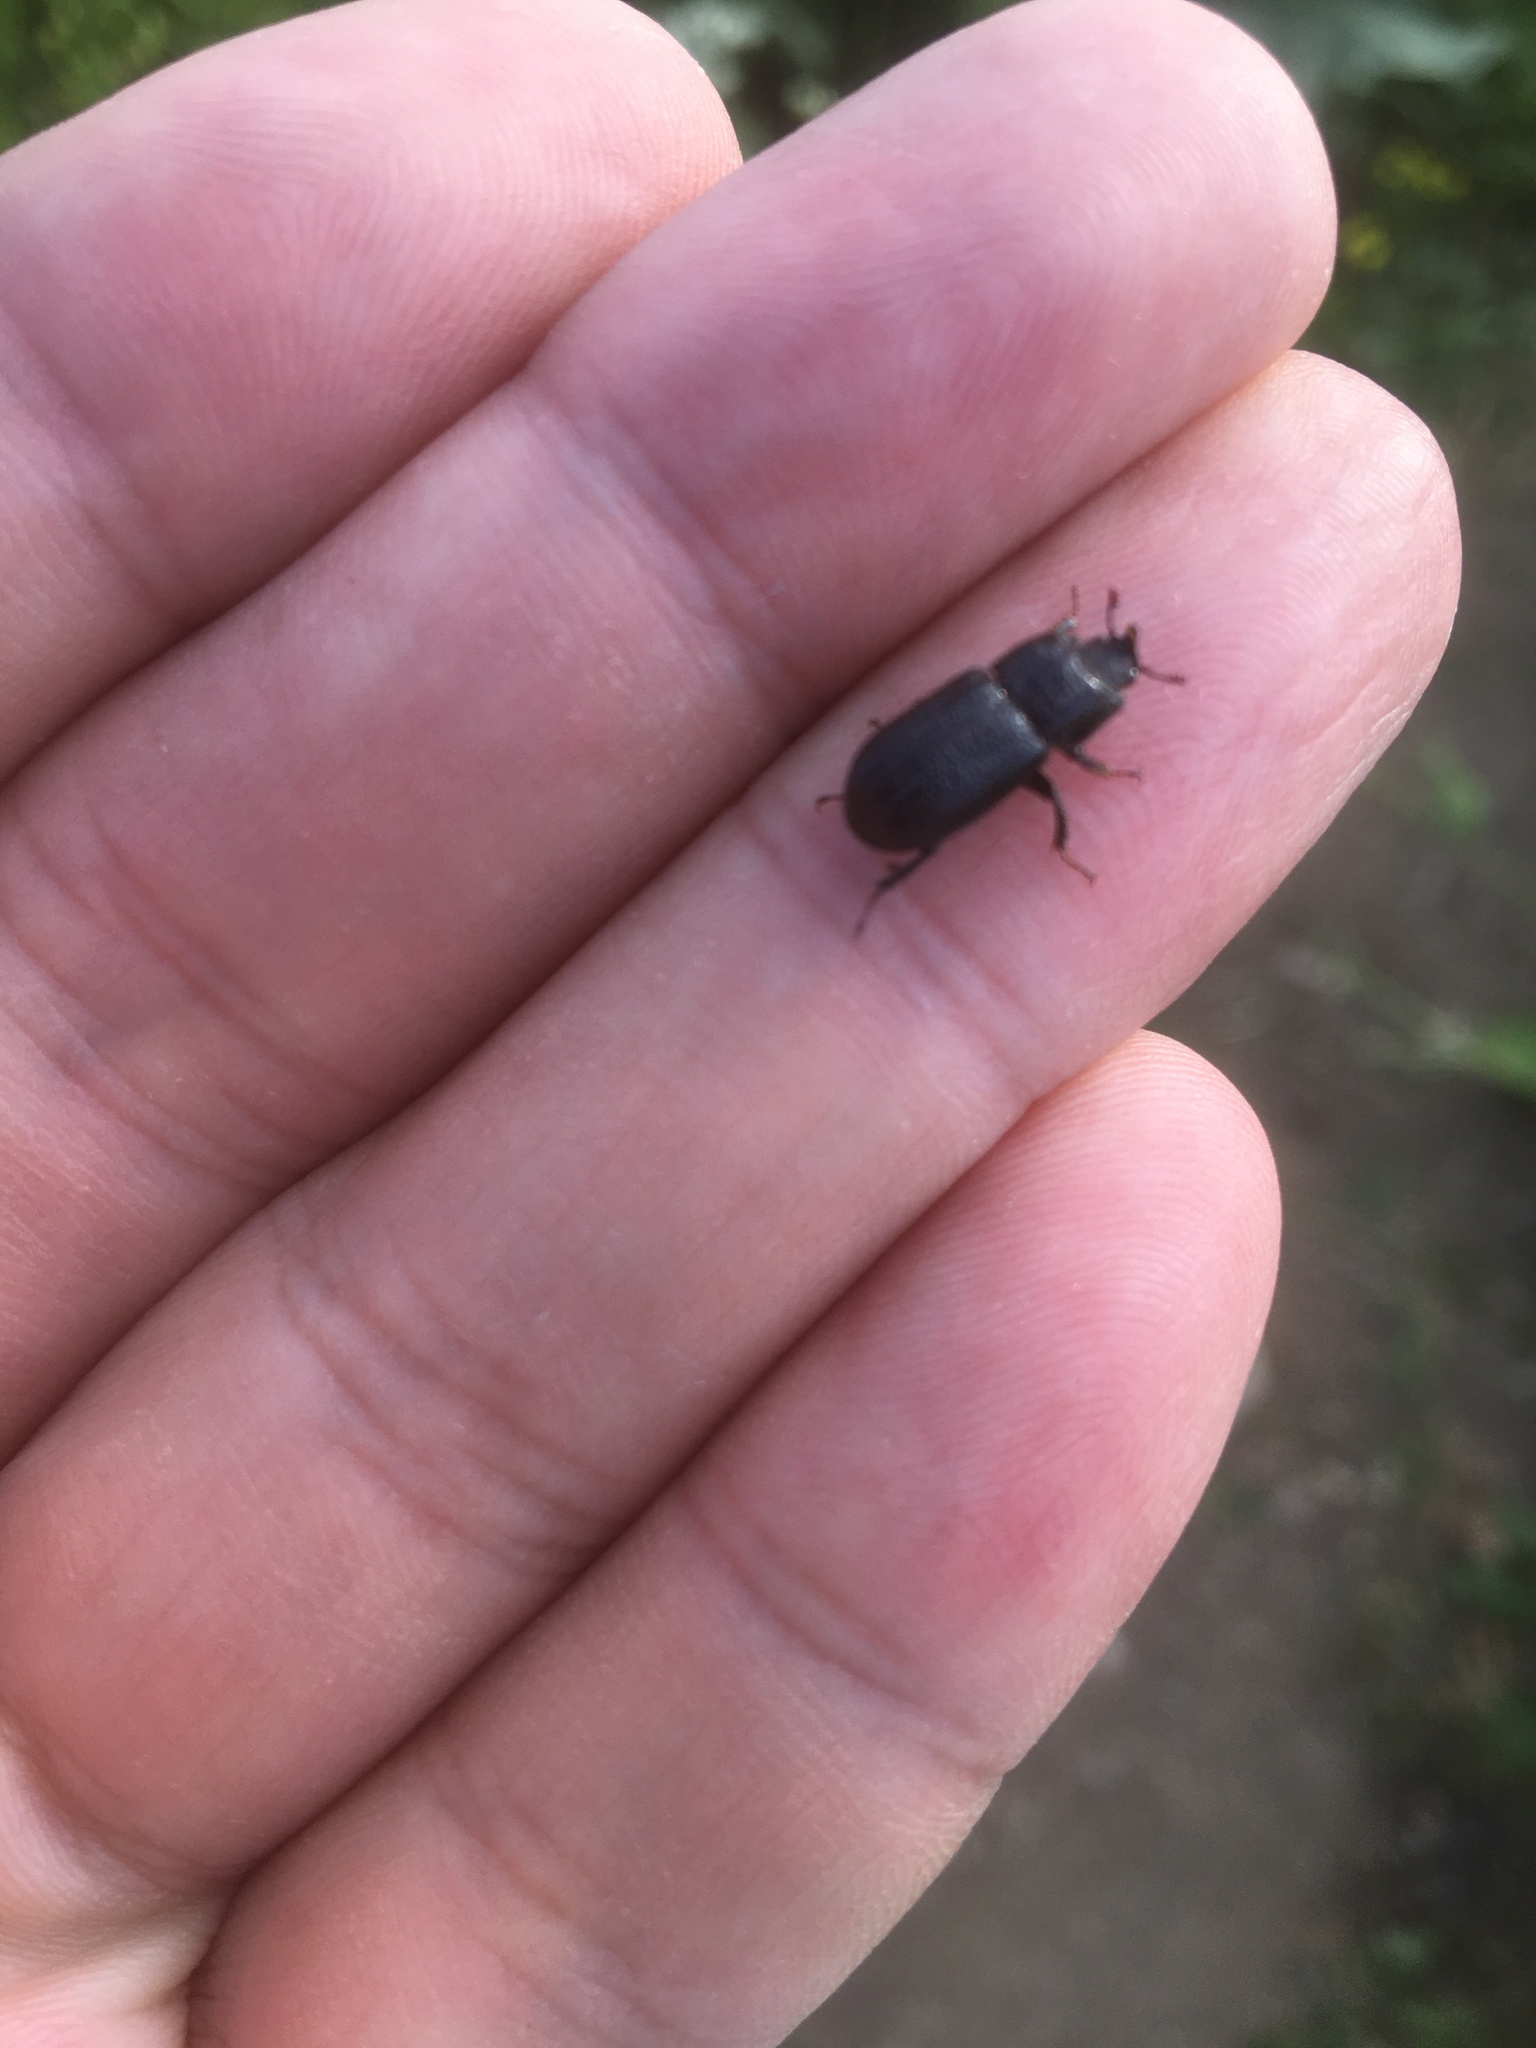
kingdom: Animalia
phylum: Arthropoda
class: Insecta
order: Coleoptera
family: Lucanidae
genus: Sinodendron
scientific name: Sinodendron cylindricum
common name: Rhinoceros beetle
